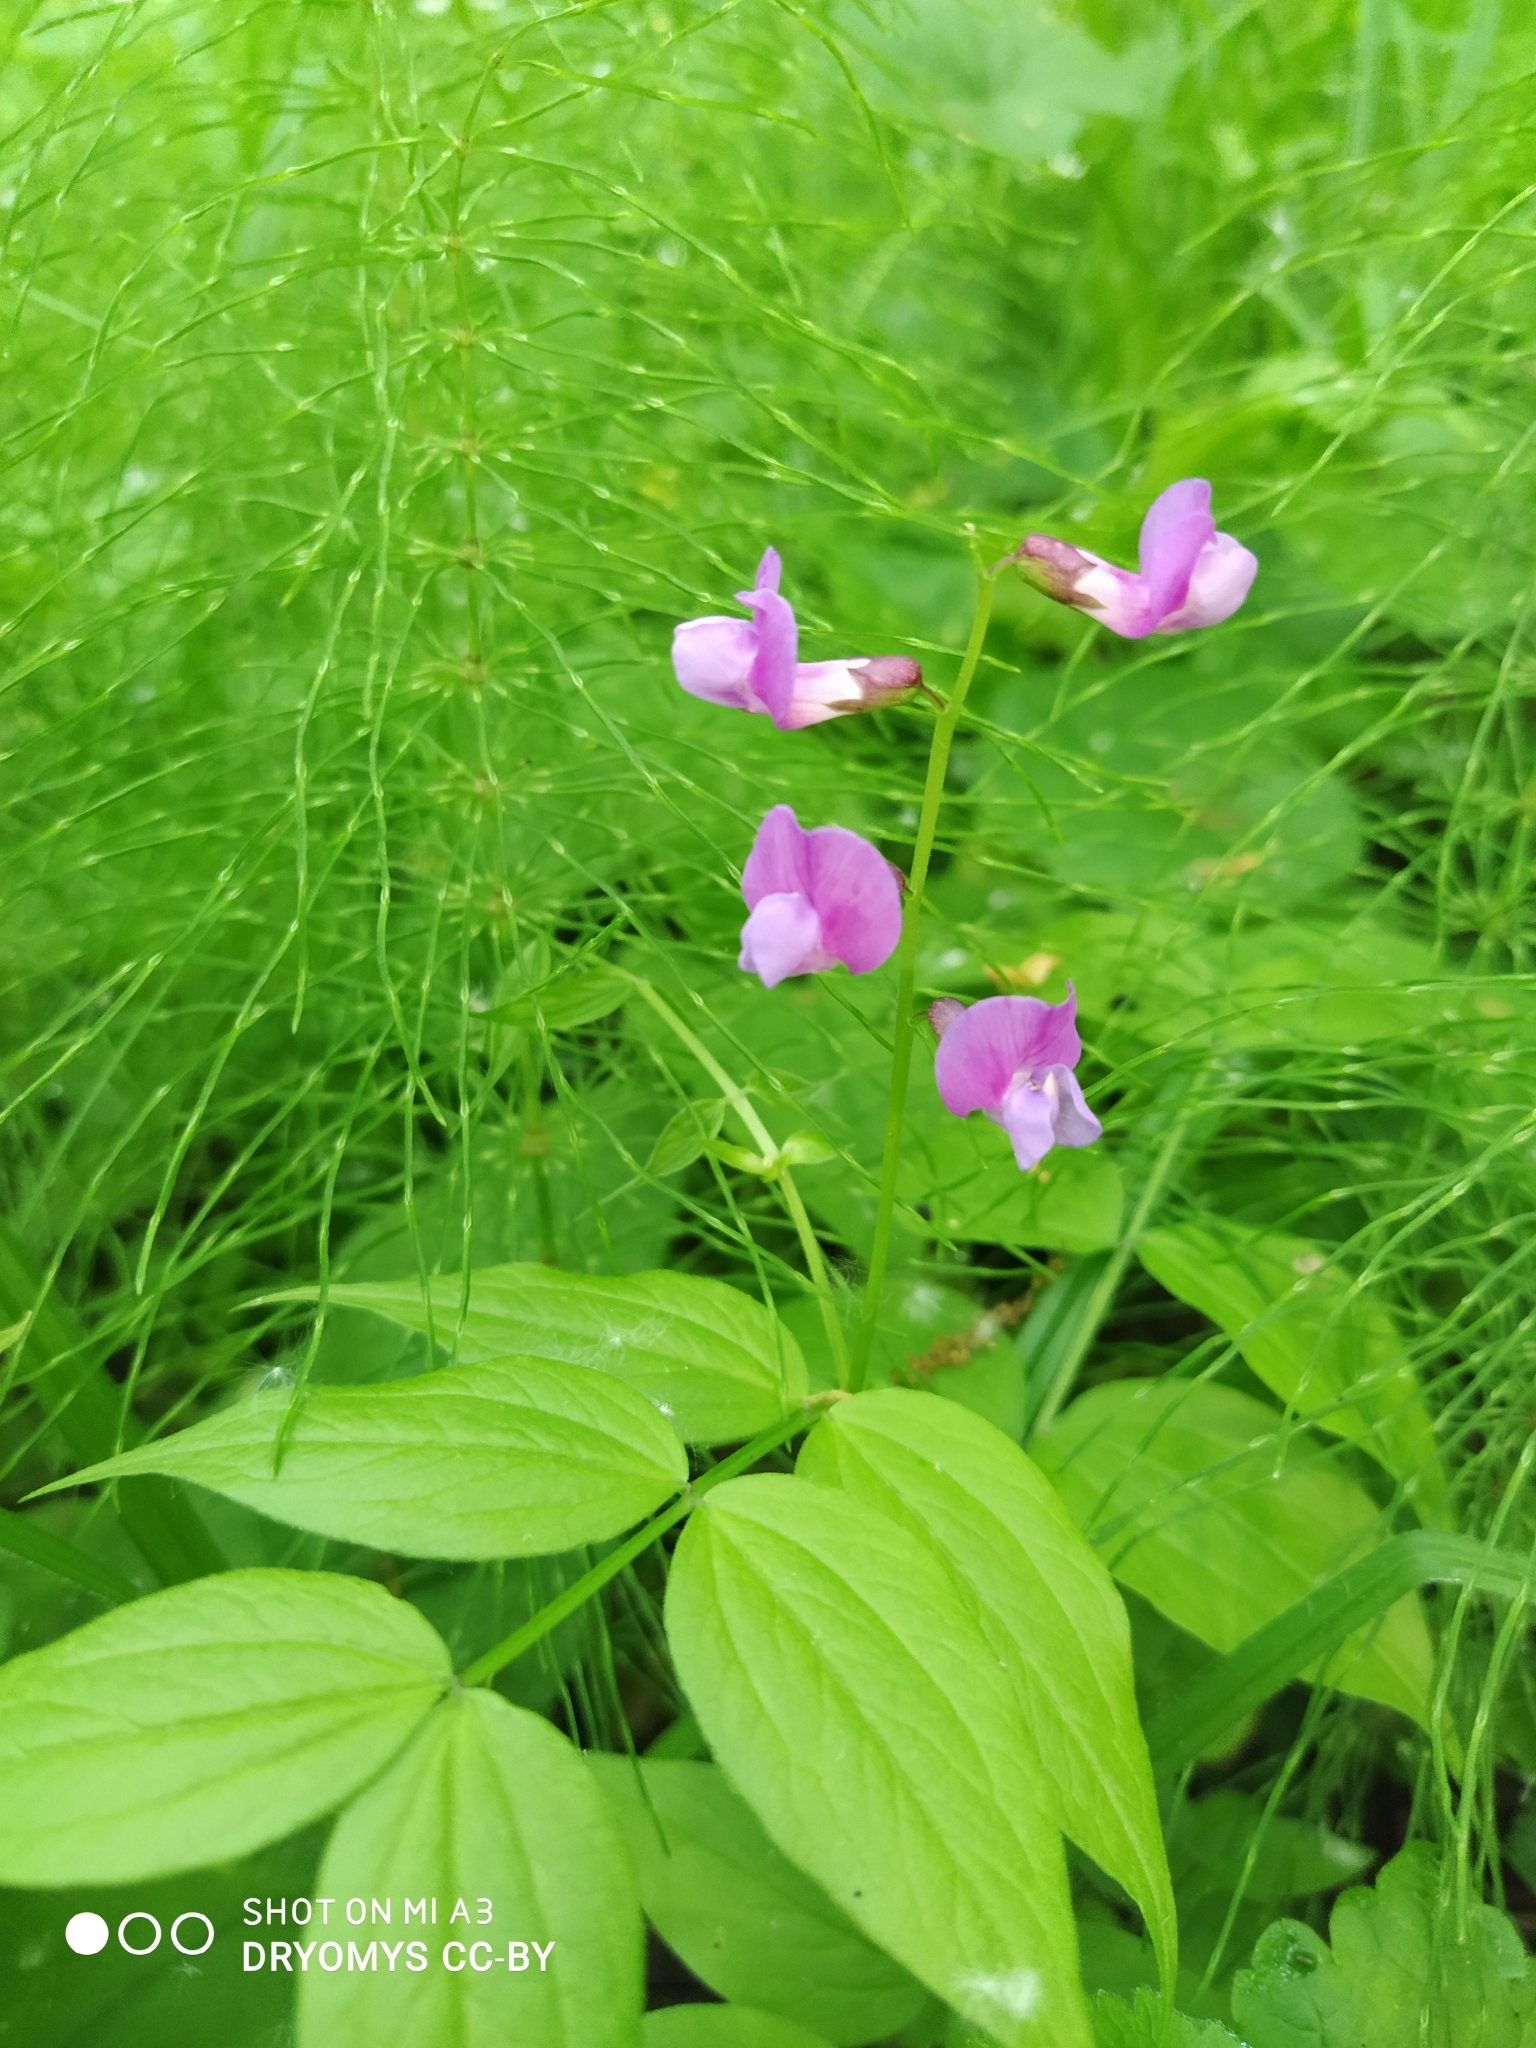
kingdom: Plantae
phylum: Tracheophyta
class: Magnoliopsida
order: Fabales
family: Fabaceae
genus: Lathyrus
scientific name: Lathyrus vernus
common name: Spring pea
